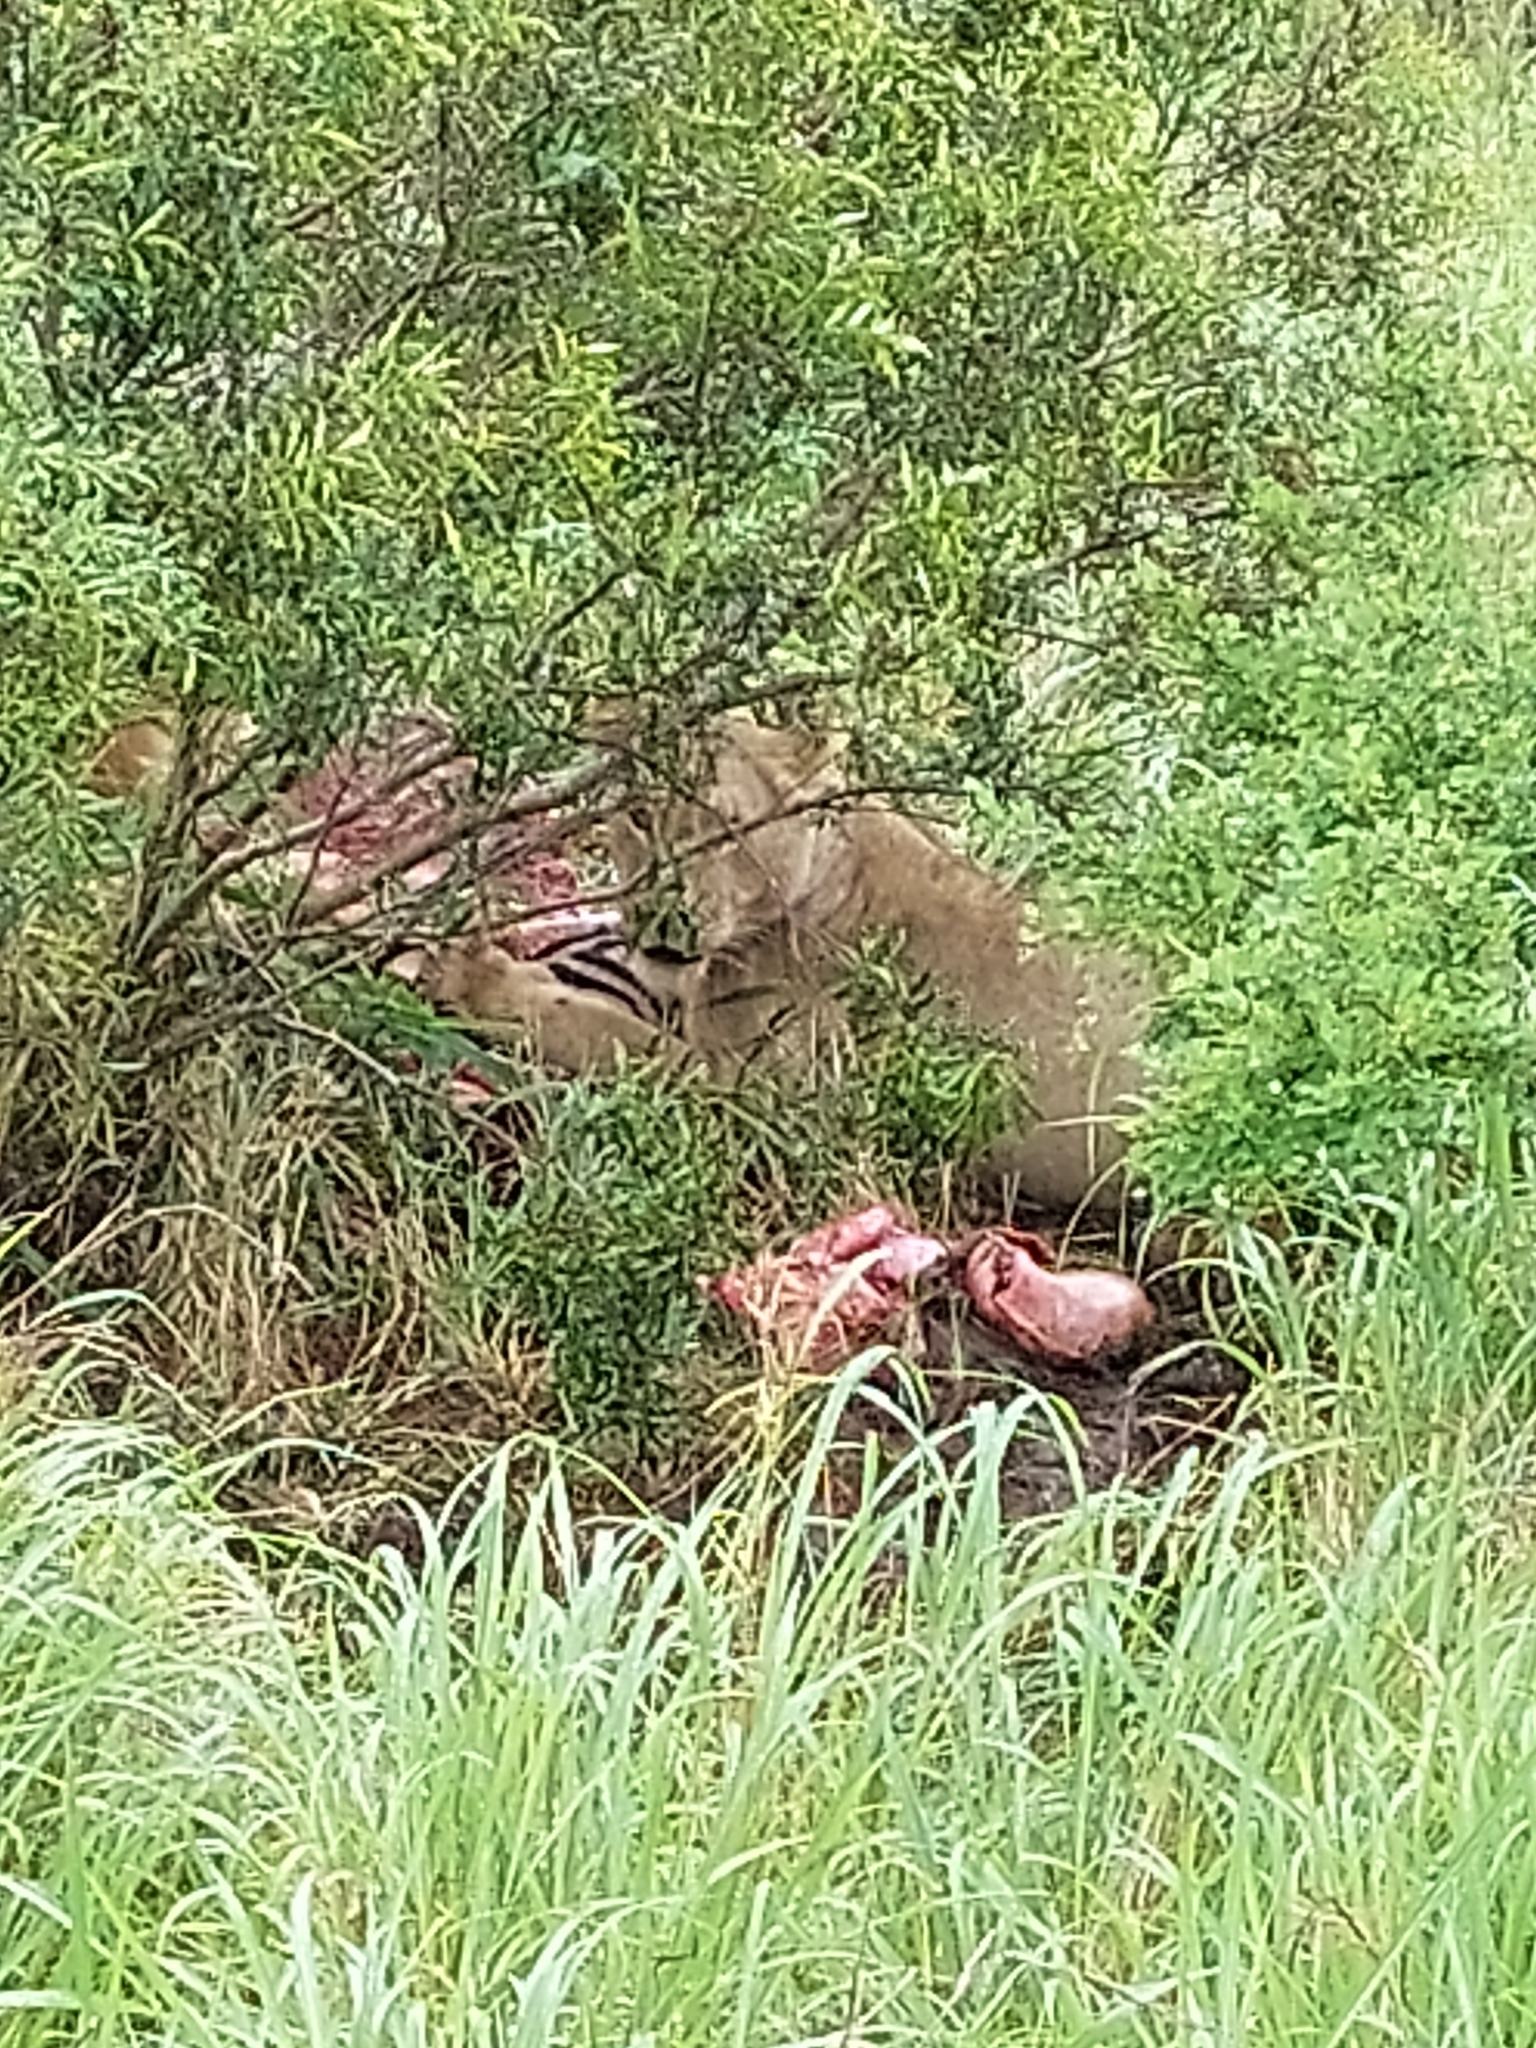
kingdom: Animalia
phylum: Chordata
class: Mammalia
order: Carnivora
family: Felidae
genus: Panthera
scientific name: Panthera leo
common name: Lion
